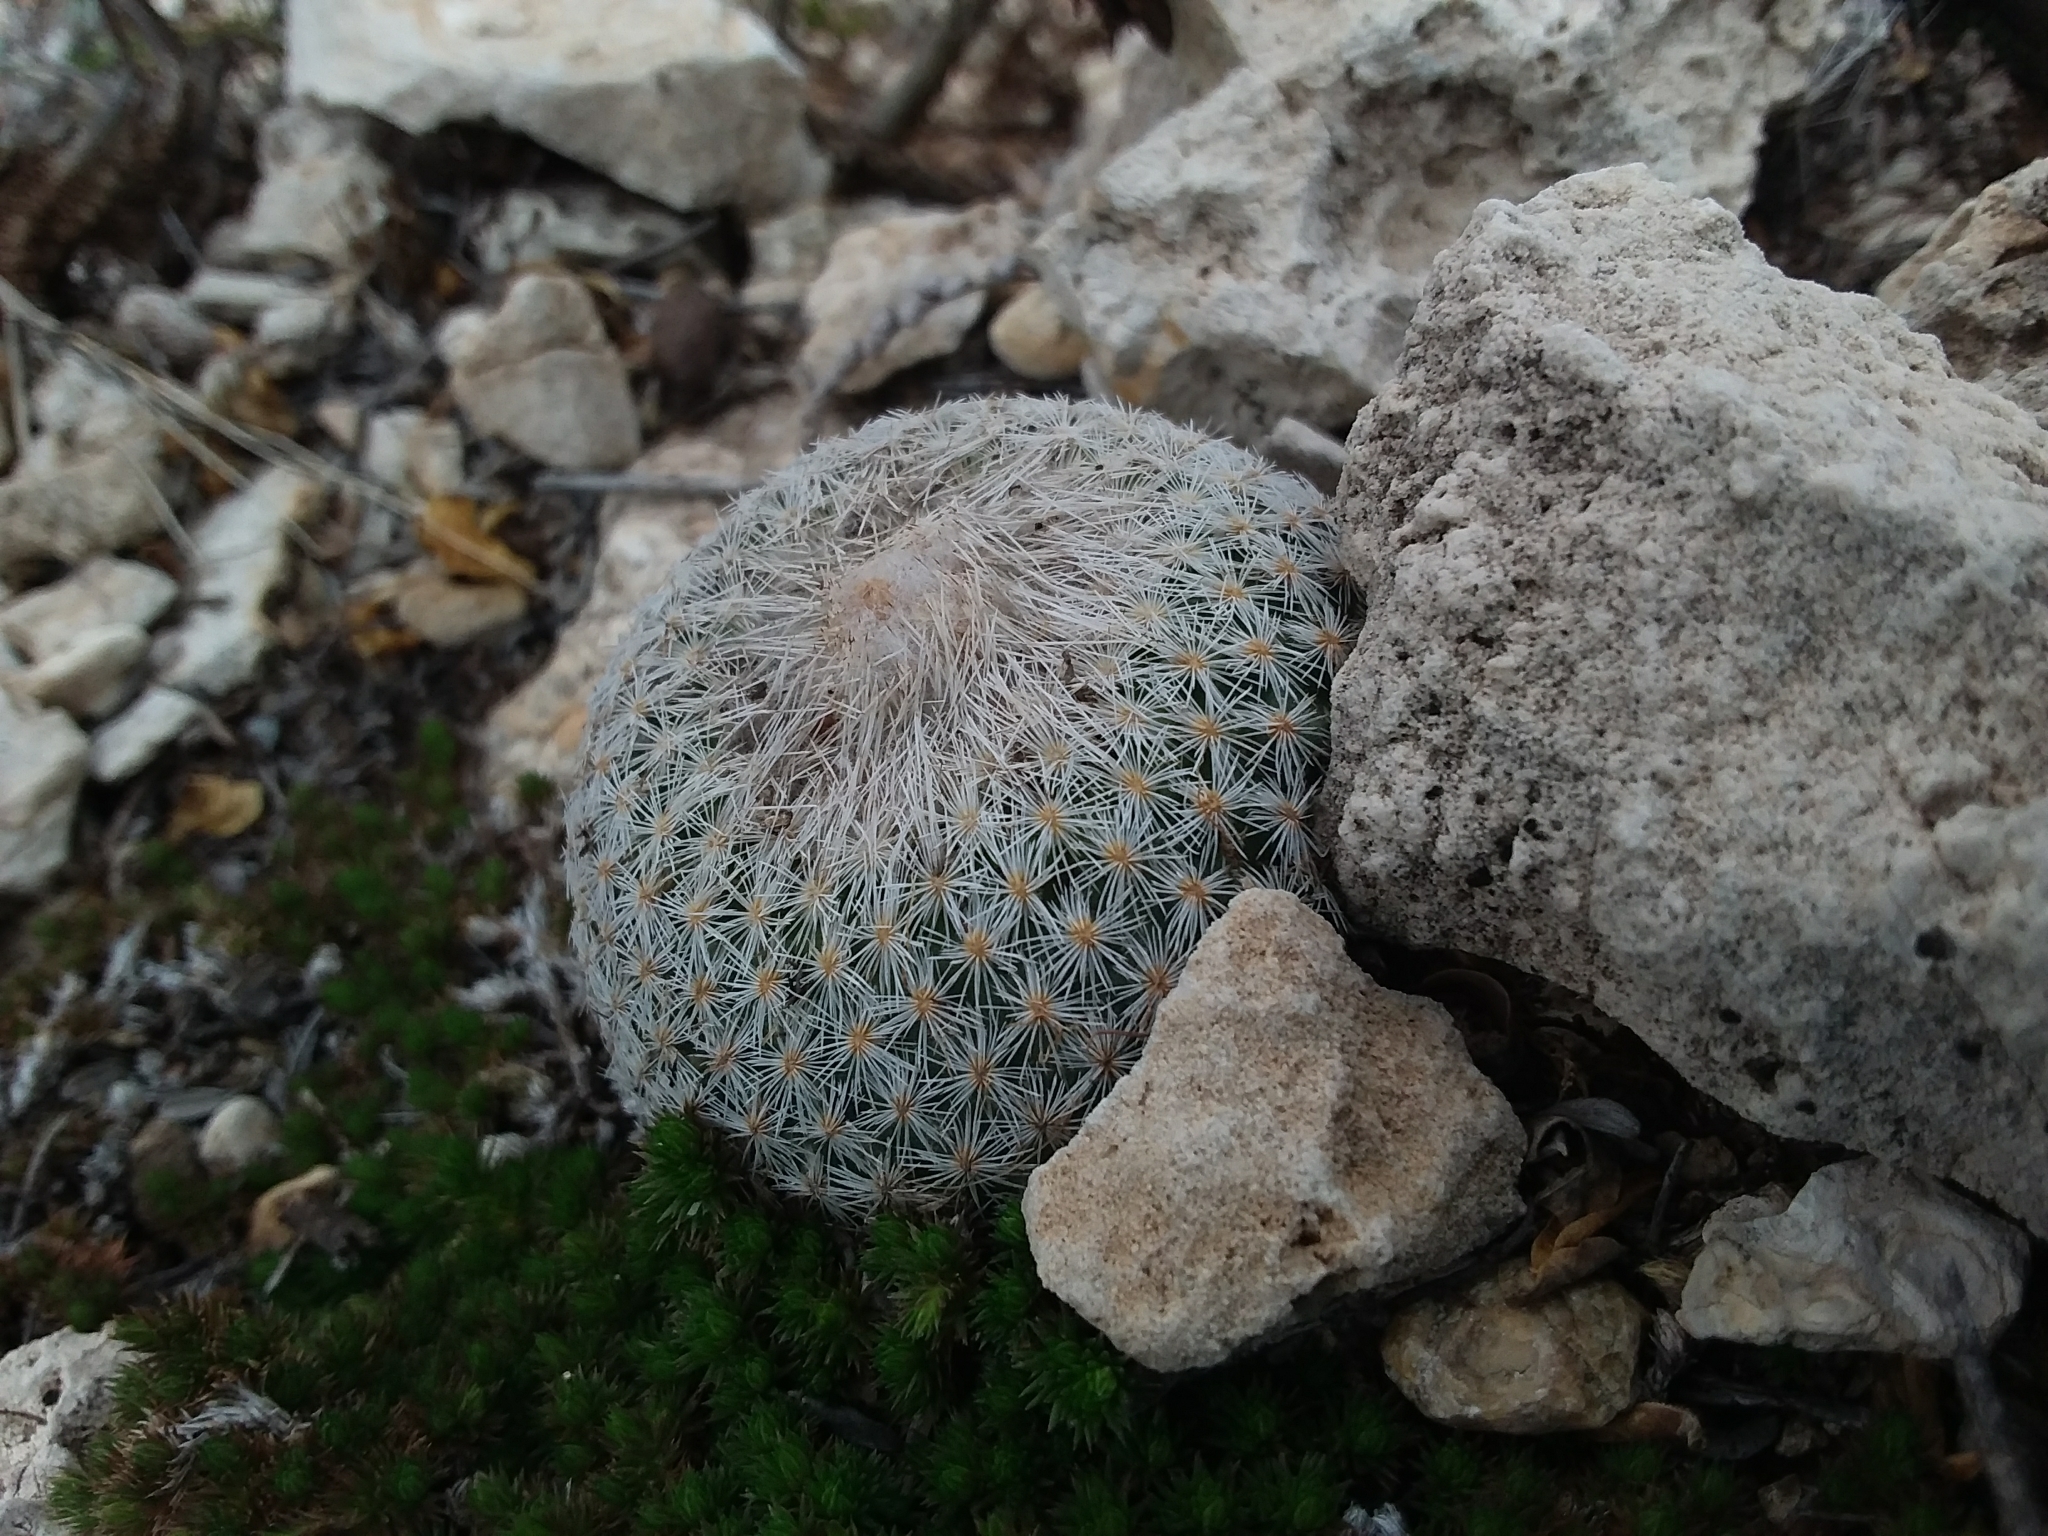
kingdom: Plantae
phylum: Tracheophyta
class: Magnoliopsida
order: Caryophyllales
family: Cactaceae
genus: Epithelantha
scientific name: Epithelantha micromeris
